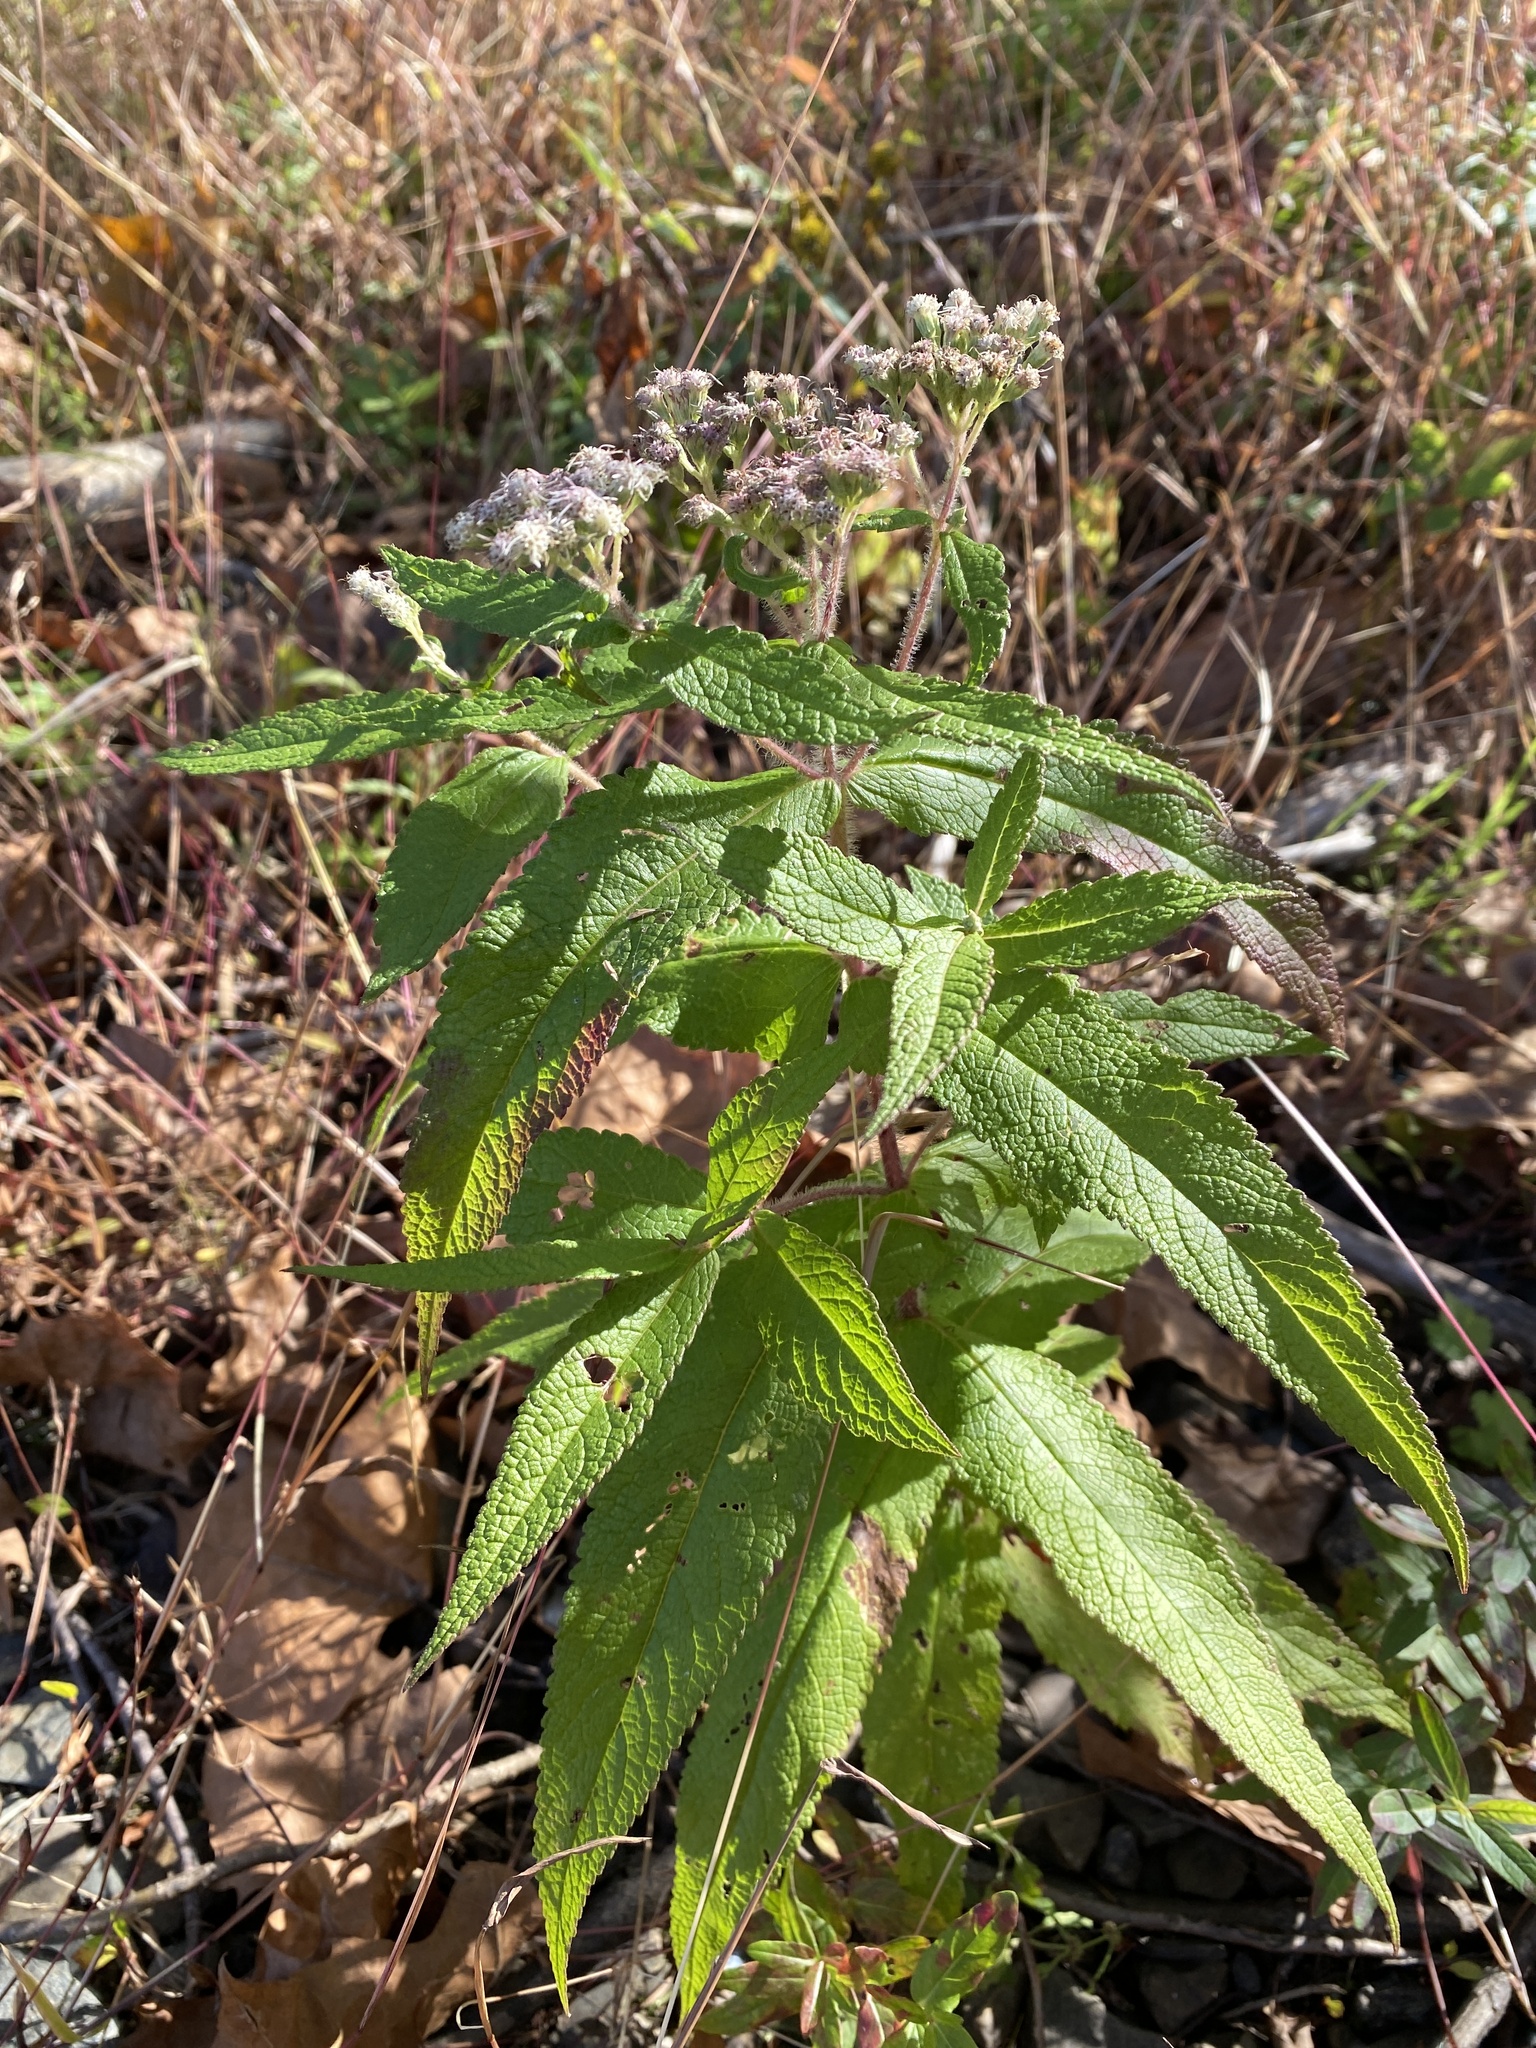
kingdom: Plantae
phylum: Tracheophyta
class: Magnoliopsida
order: Asterales
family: Asteraceae
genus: Eupatorium
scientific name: Eupatorium perfoliatum
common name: Boneset
